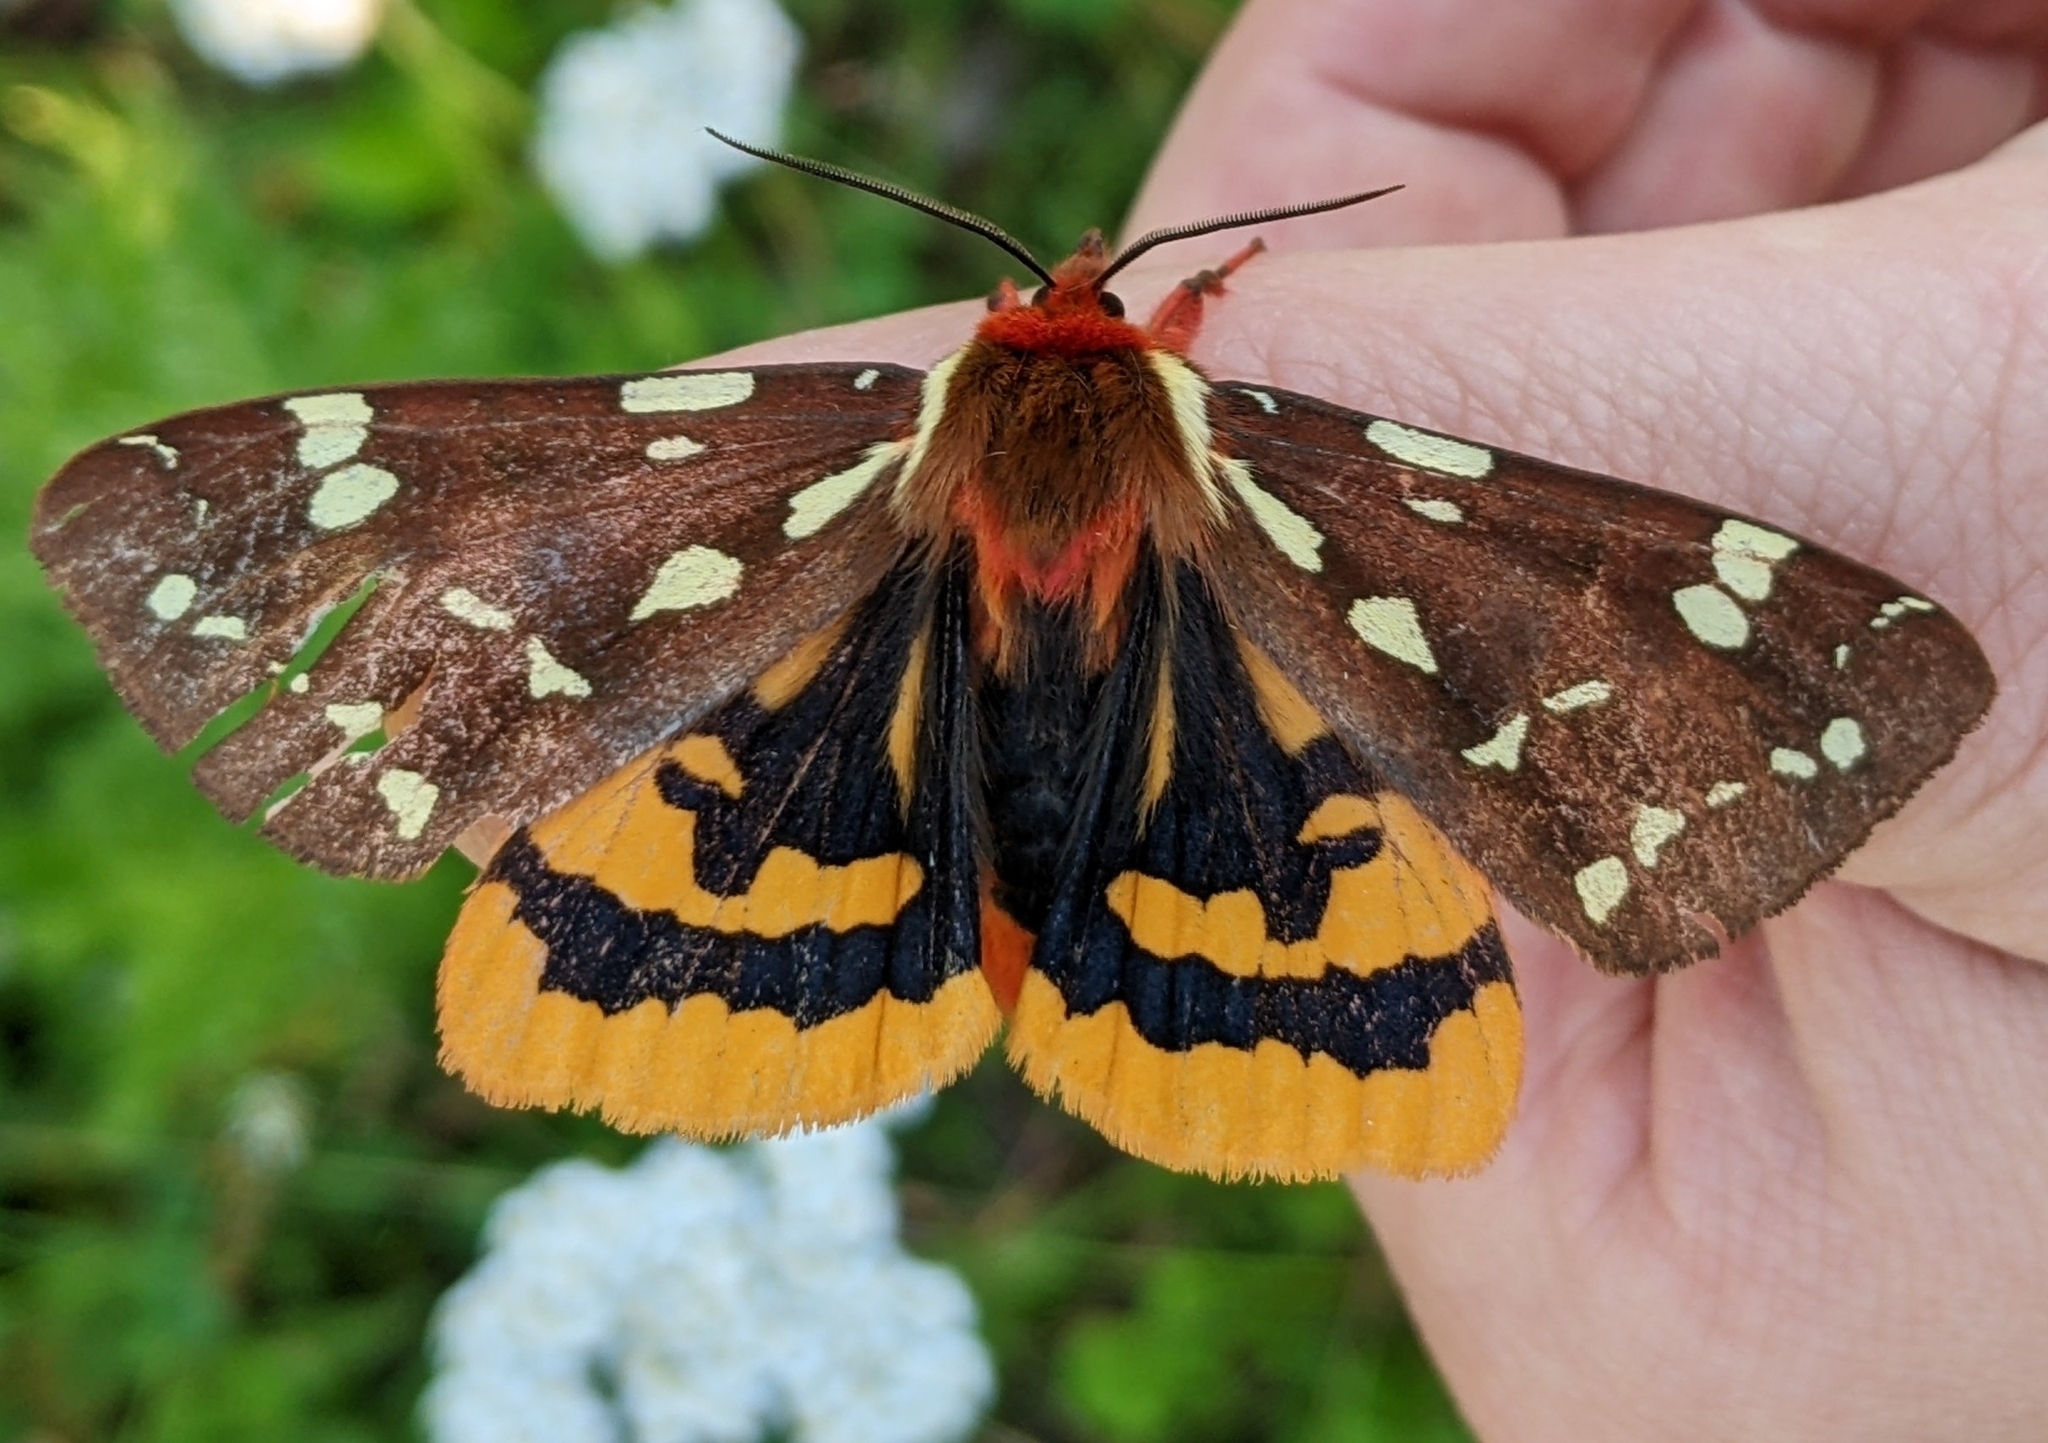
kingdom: Animalia
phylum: Arthropoda
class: Insecta
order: Lepidoptera
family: Erebidae
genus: Arctia
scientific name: Arctia parthenos
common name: St. lawrence tiger moth
